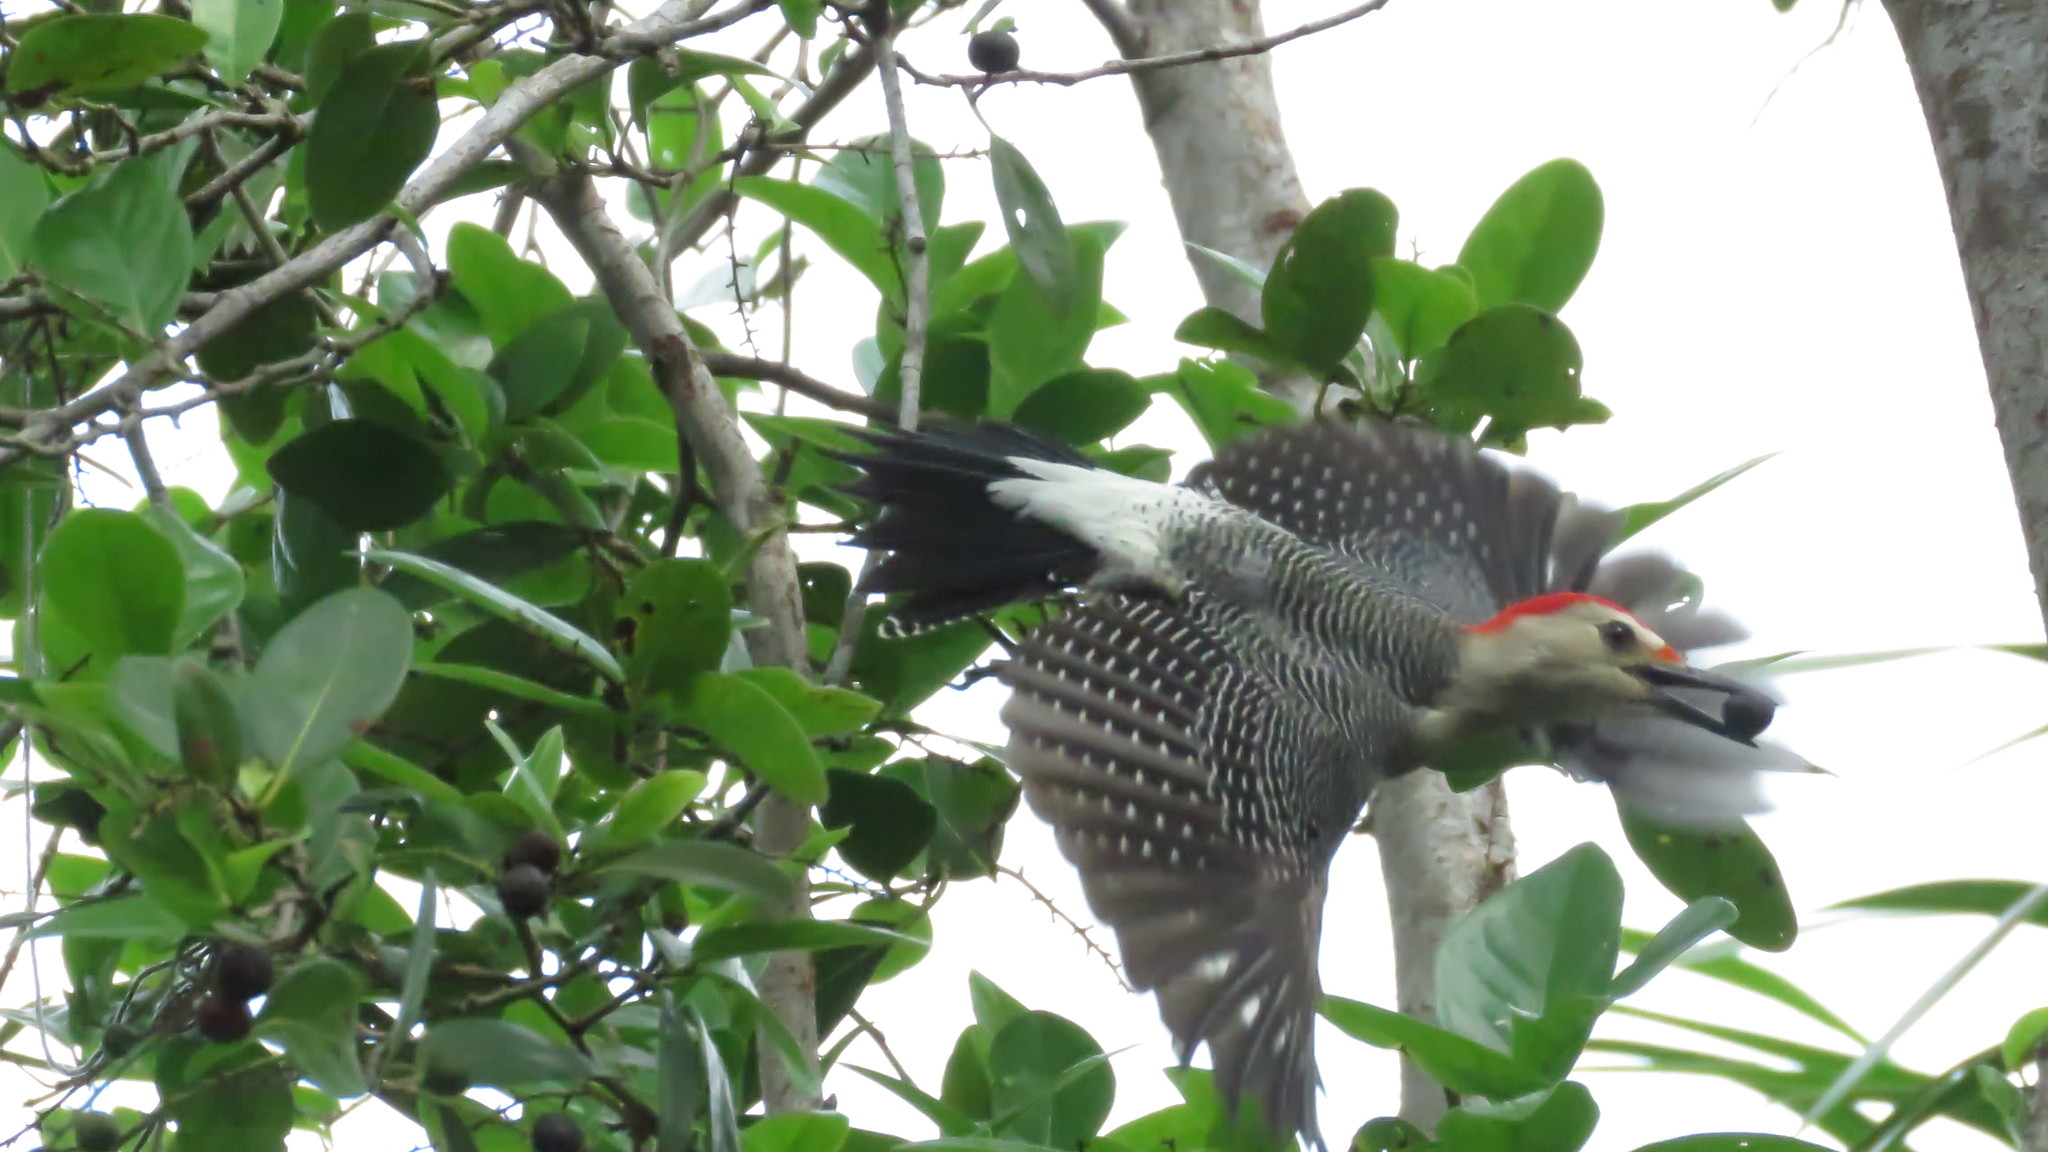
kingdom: Animalia
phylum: Chordata
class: Aves
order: Piciformes
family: Picidae
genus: Melanerpes
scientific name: Melanerpes aurifrons
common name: Golden-fronted woodpecker
